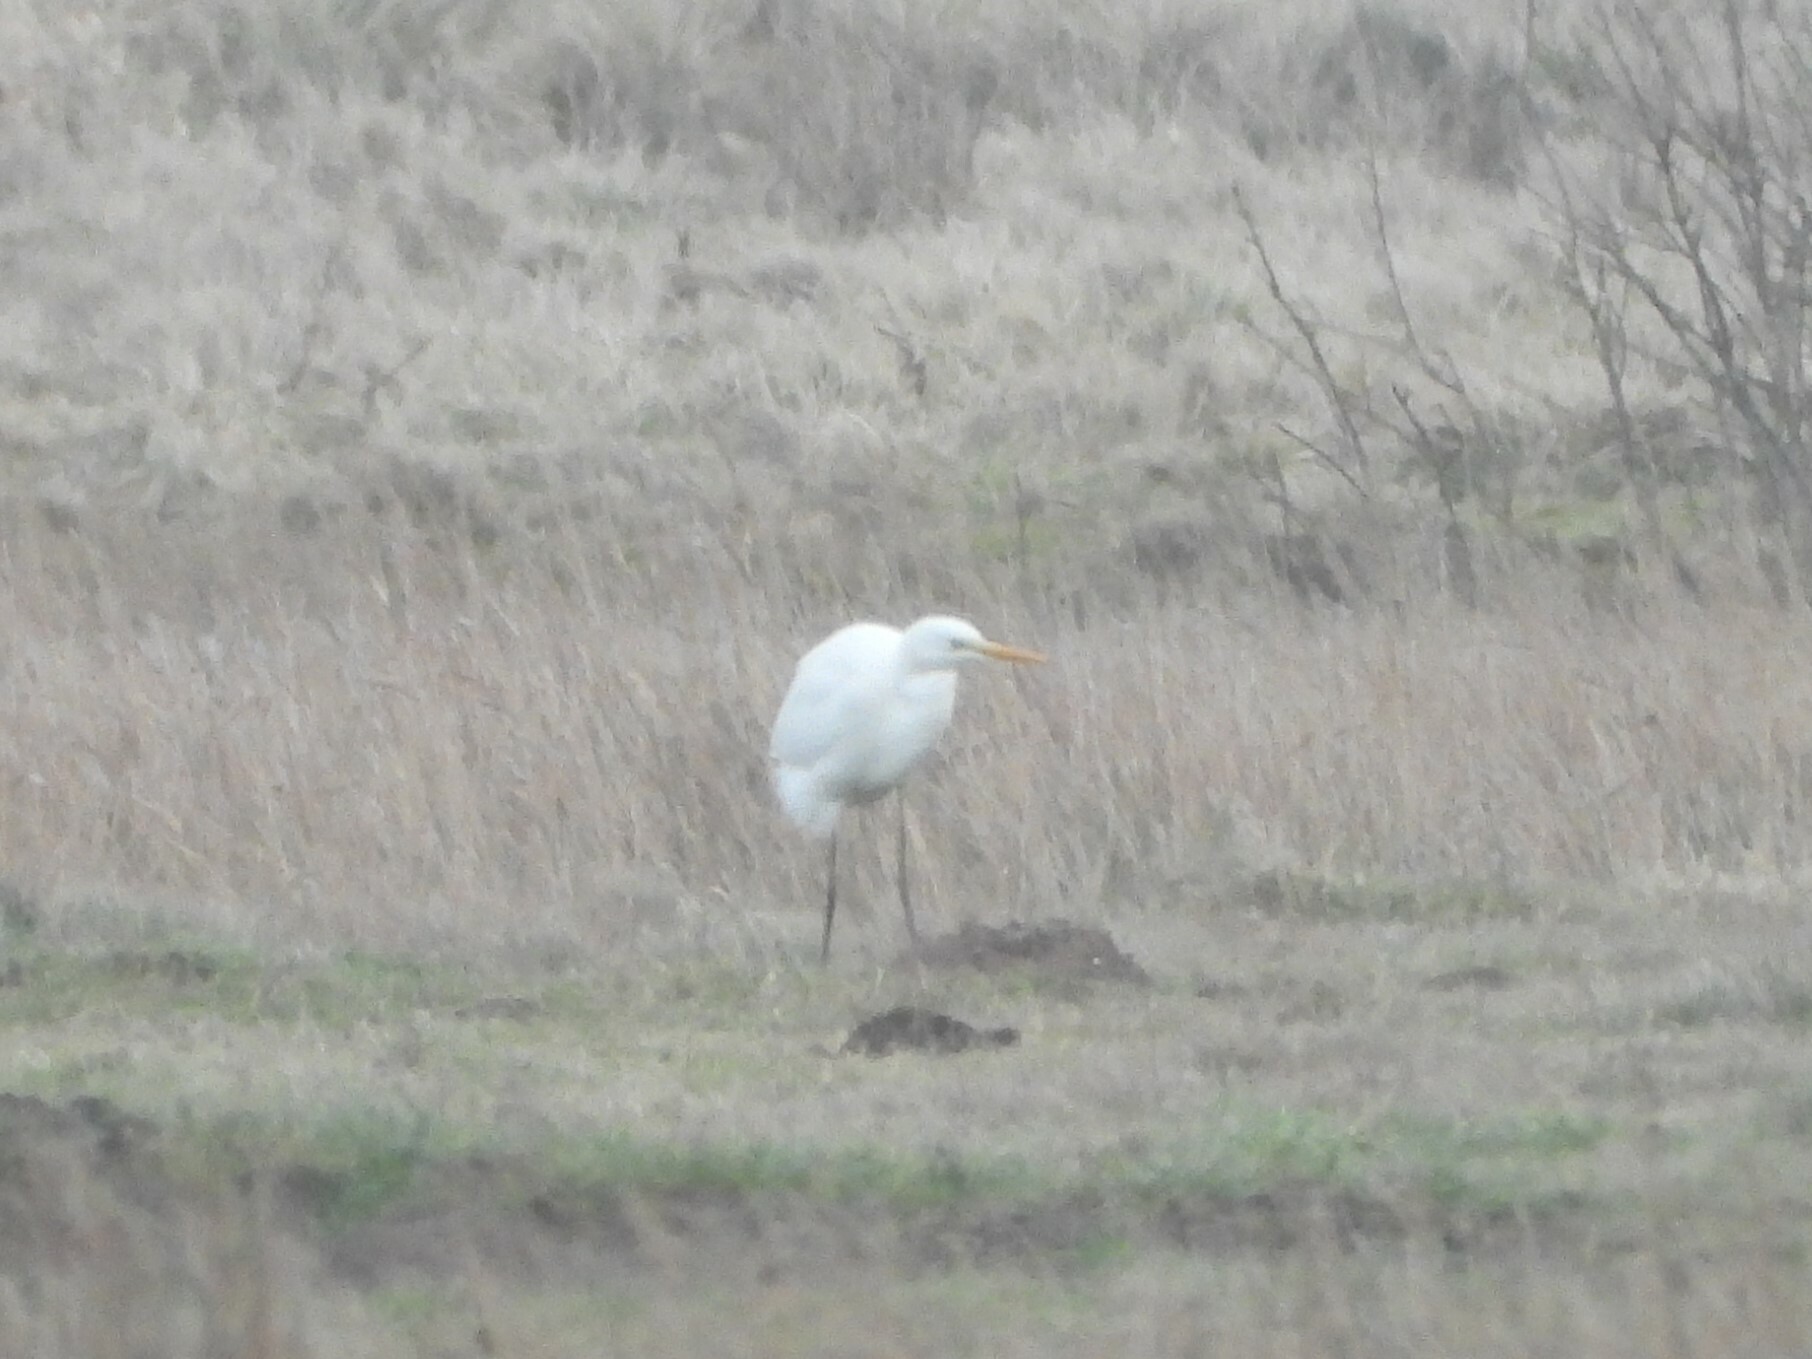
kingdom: Animalia
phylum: Chordata
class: Aves
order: Pelecaniformes
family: Ardeidae
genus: Ardea
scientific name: Ardea alba
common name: Great egret
